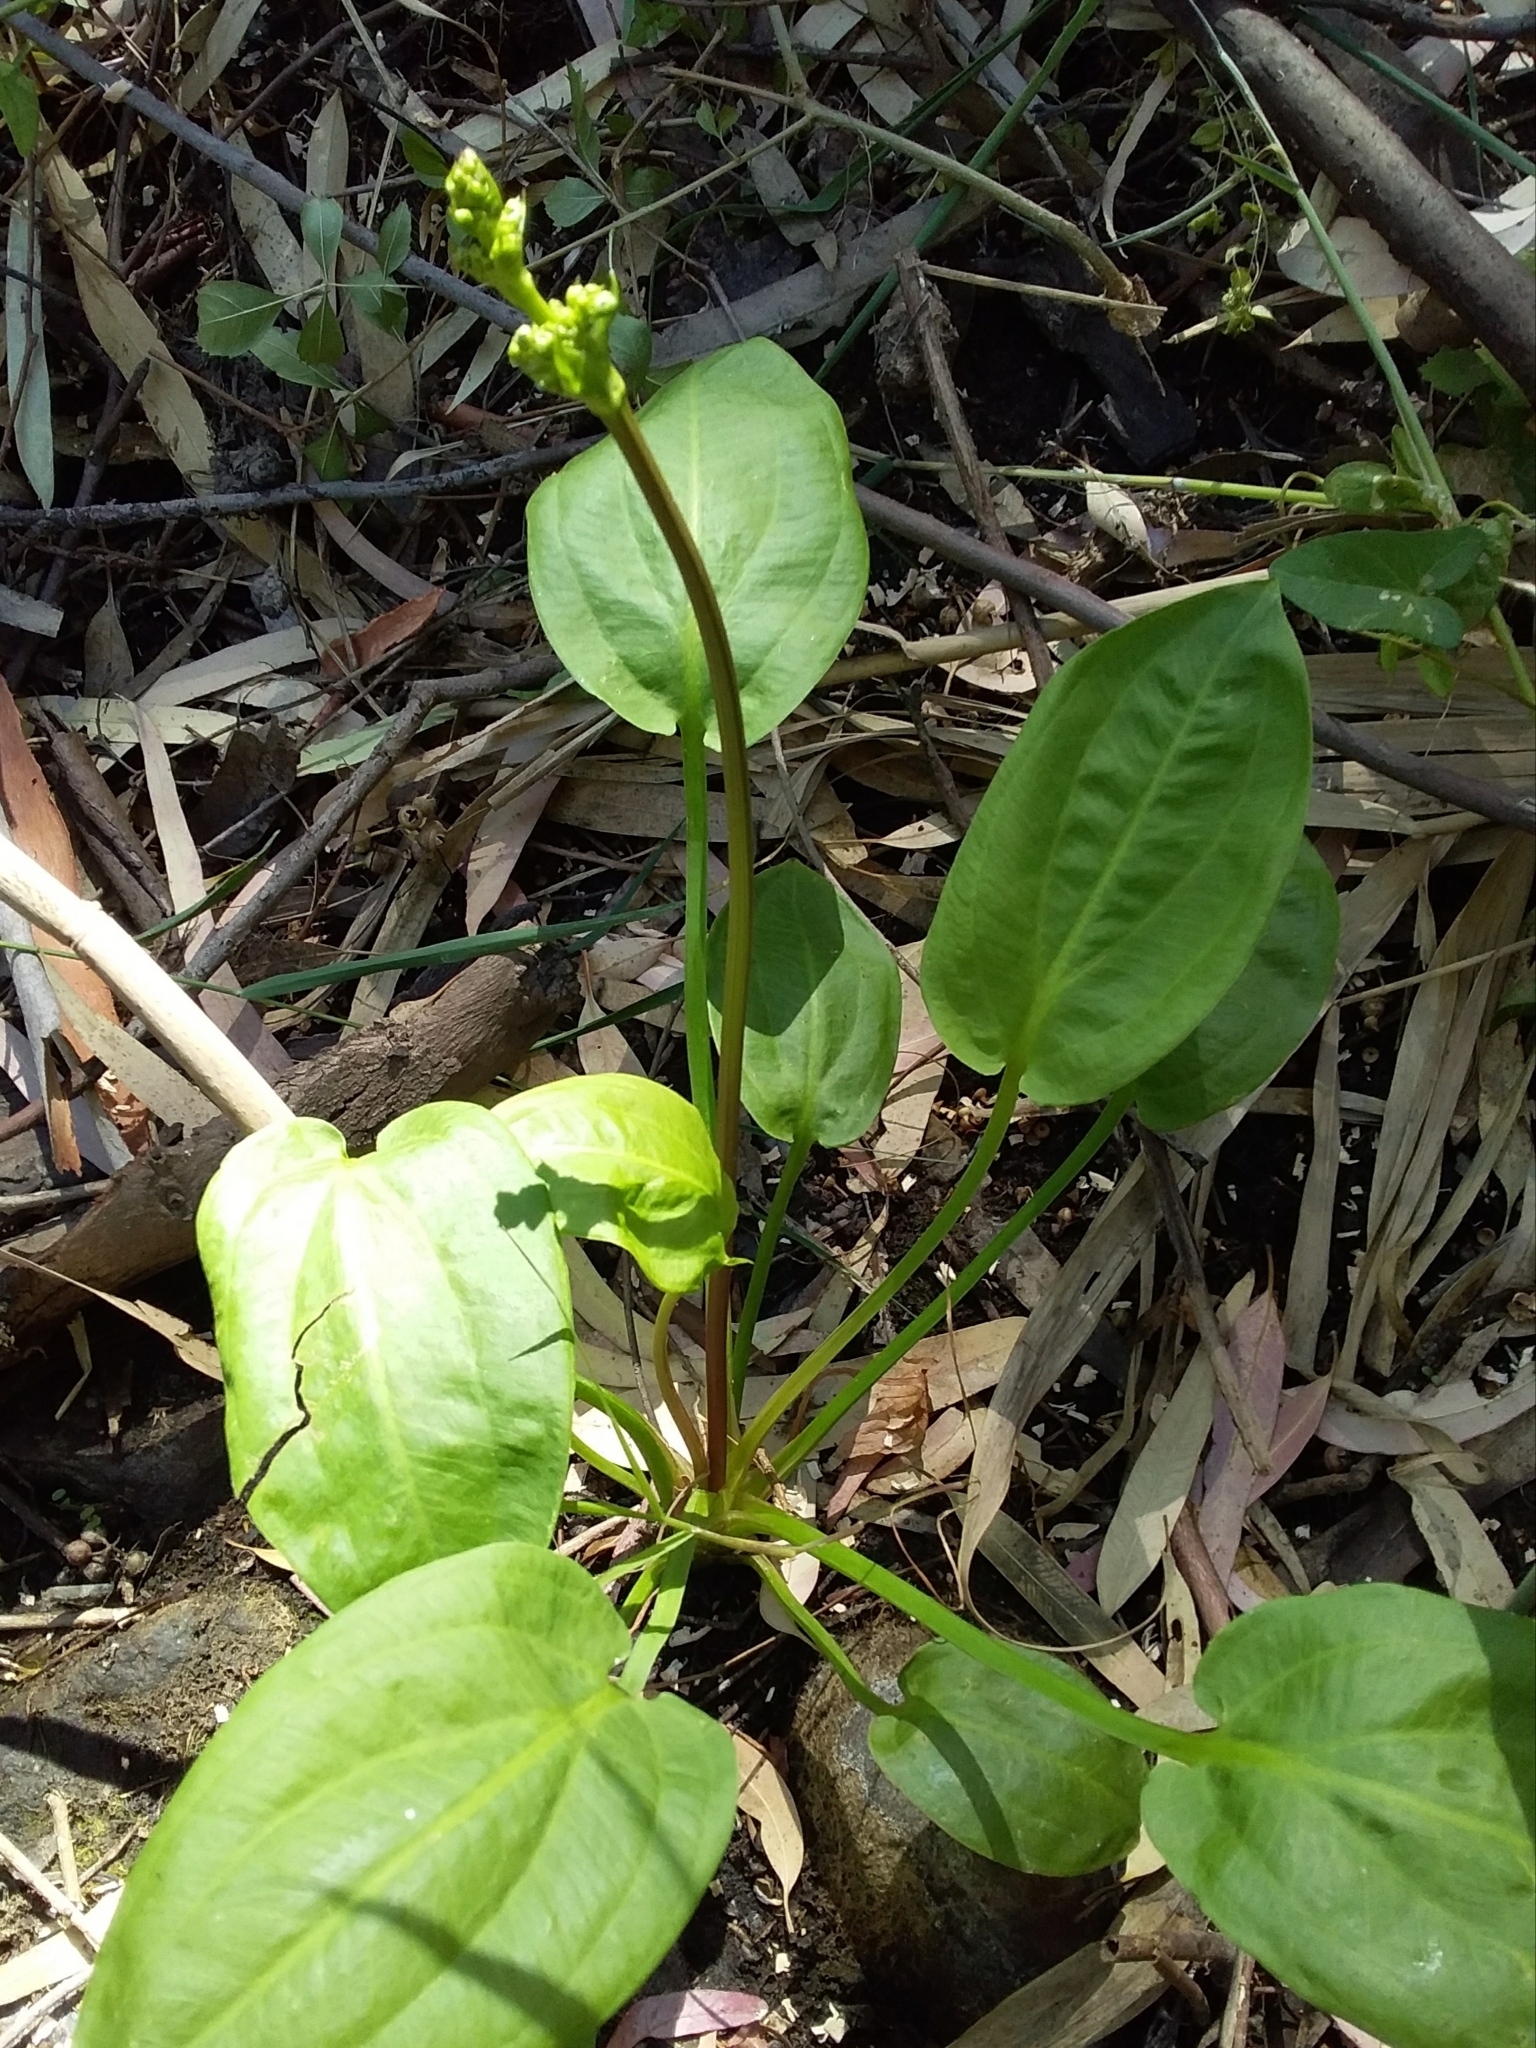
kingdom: Plantae
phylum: Tracheophyta
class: Liliopsida
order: Alismatales
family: Alismataceae
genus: Alisma
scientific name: Alisma plantago-aquatica
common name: Water-plantain
